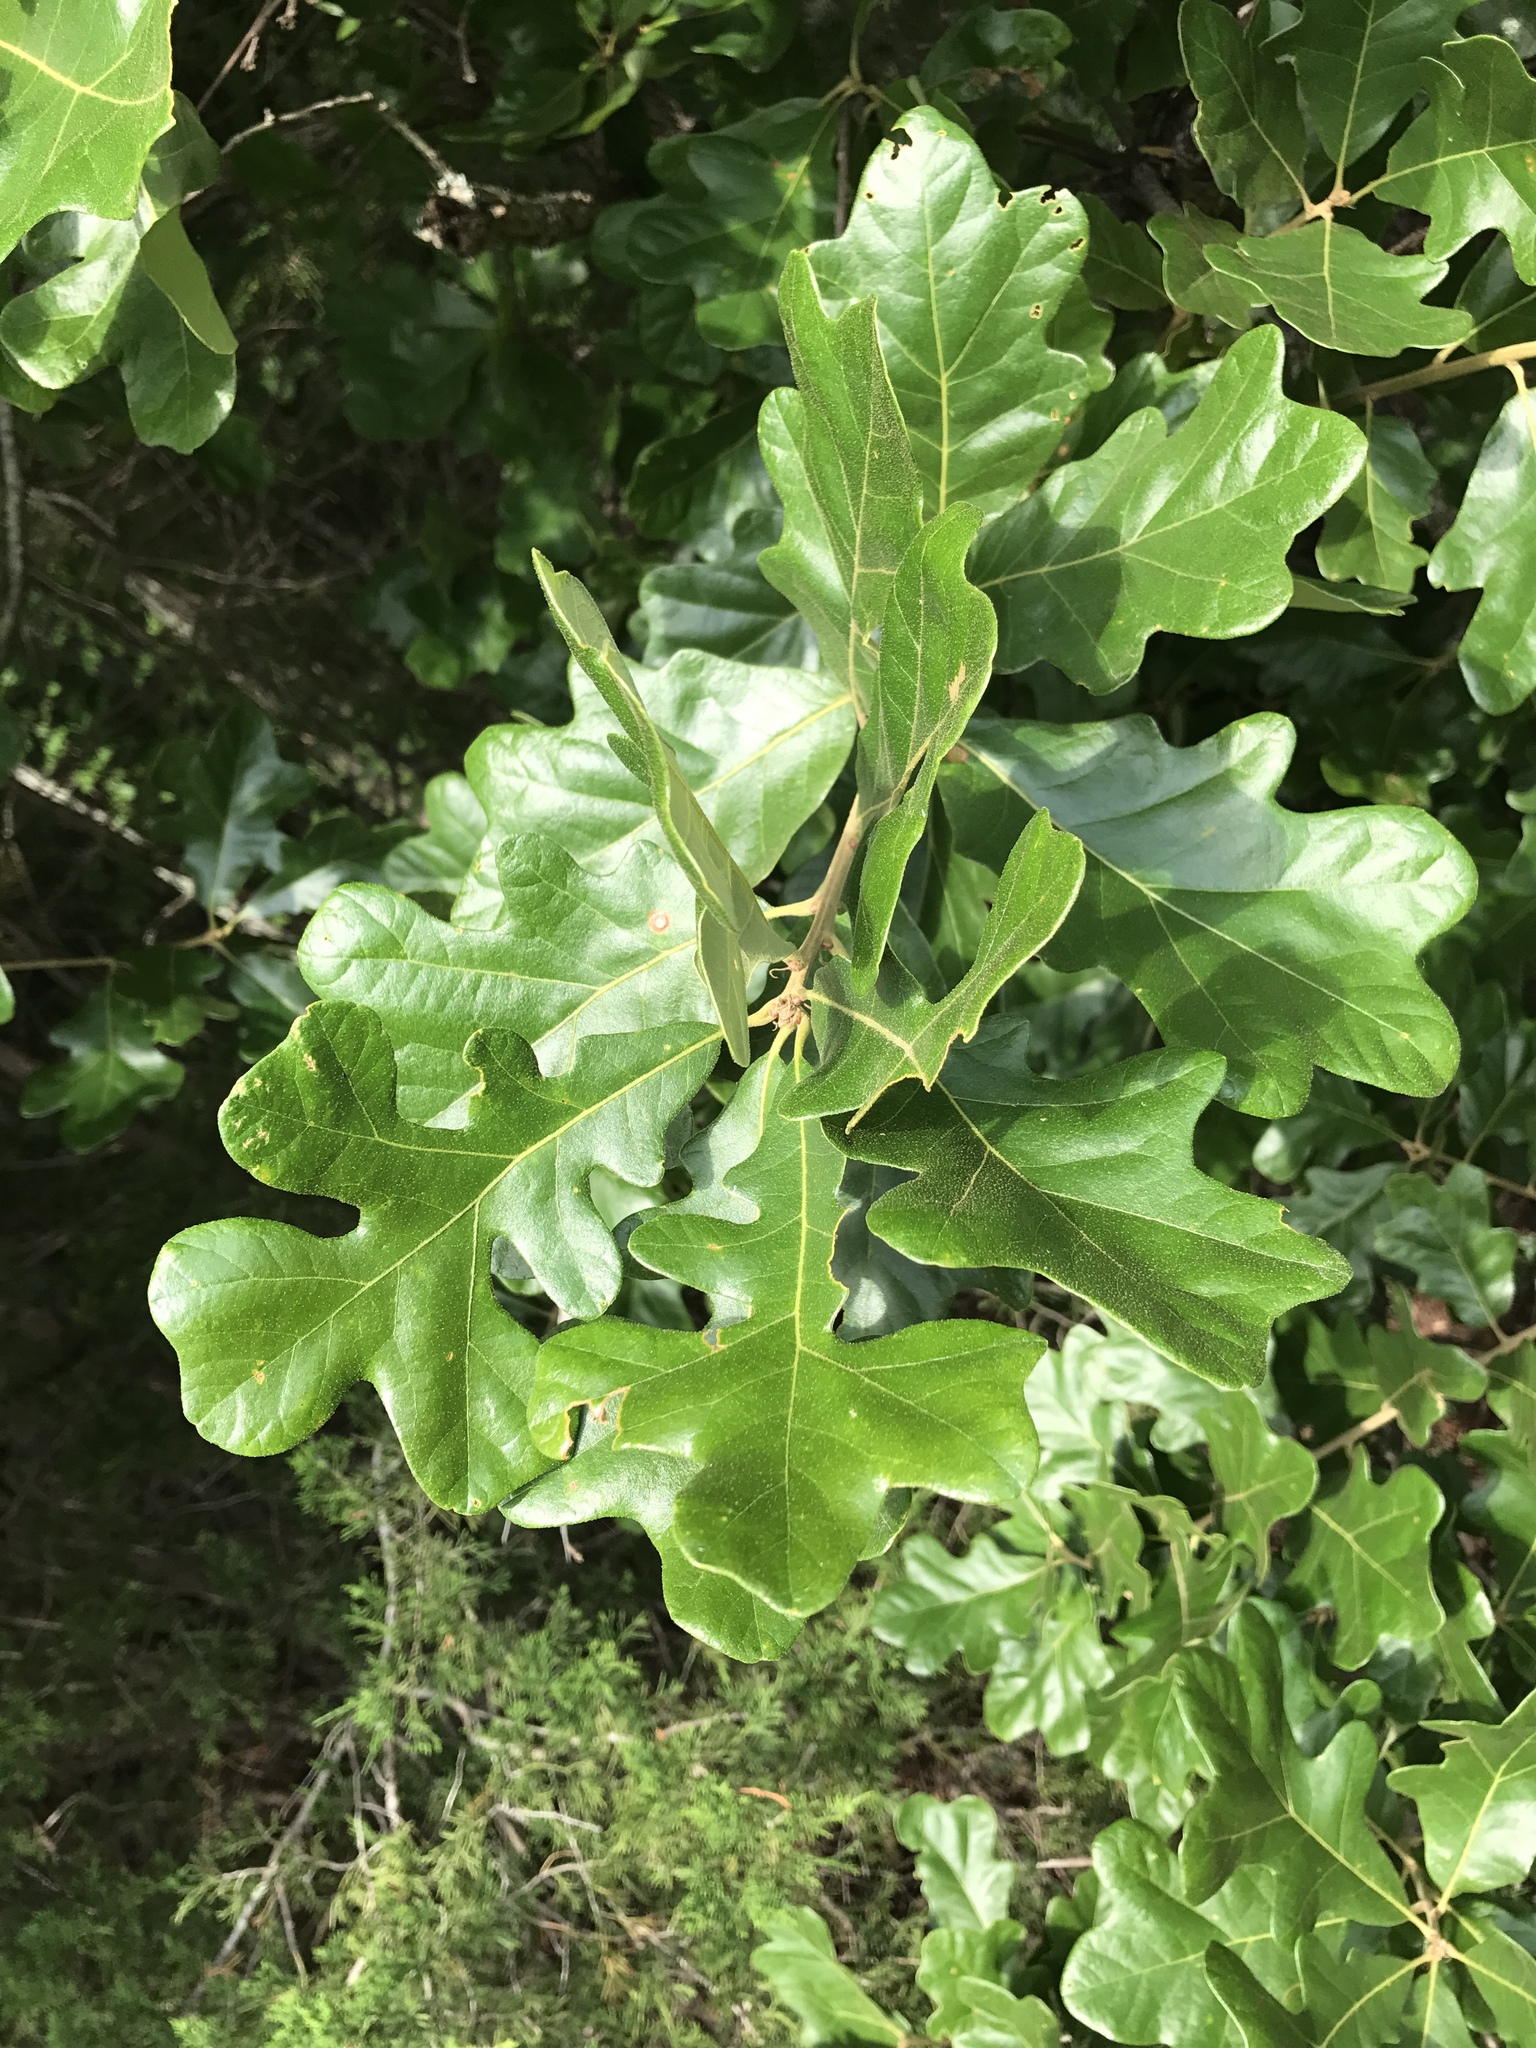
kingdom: Plantae
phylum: Tracheophyta
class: Magnoliopsida
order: Fagales
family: Fagaceae
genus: Quercus
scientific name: Quercus stellata
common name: Post oak
